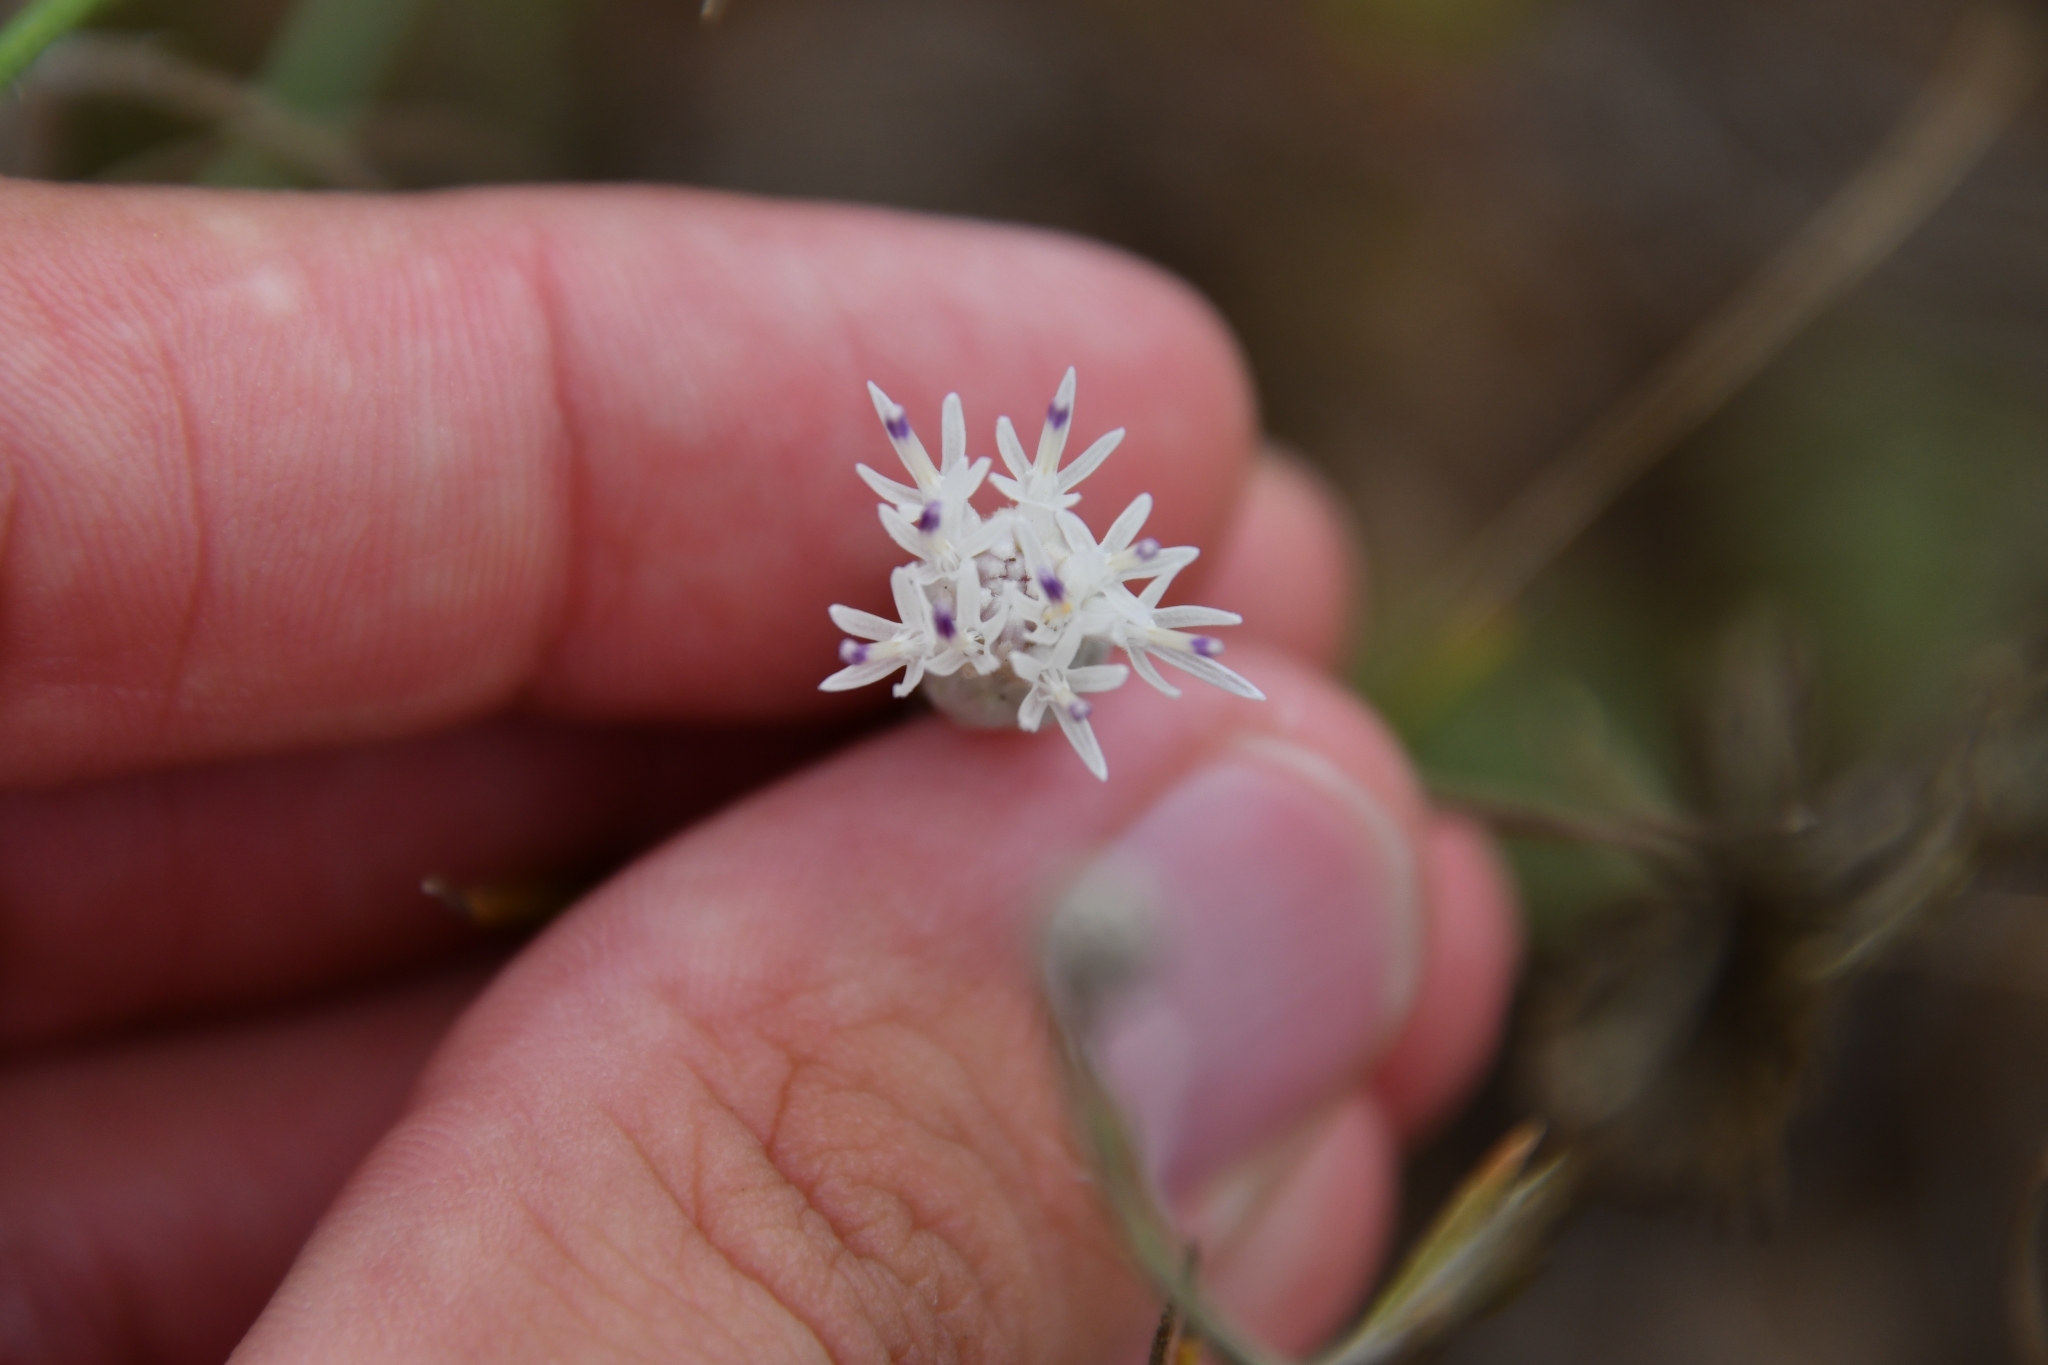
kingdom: Plantae
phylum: Tracheophyta
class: Magnoliopsida
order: Asterales
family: Asteraceae
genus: Jurinea
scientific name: Jurinea stoechadifolia
